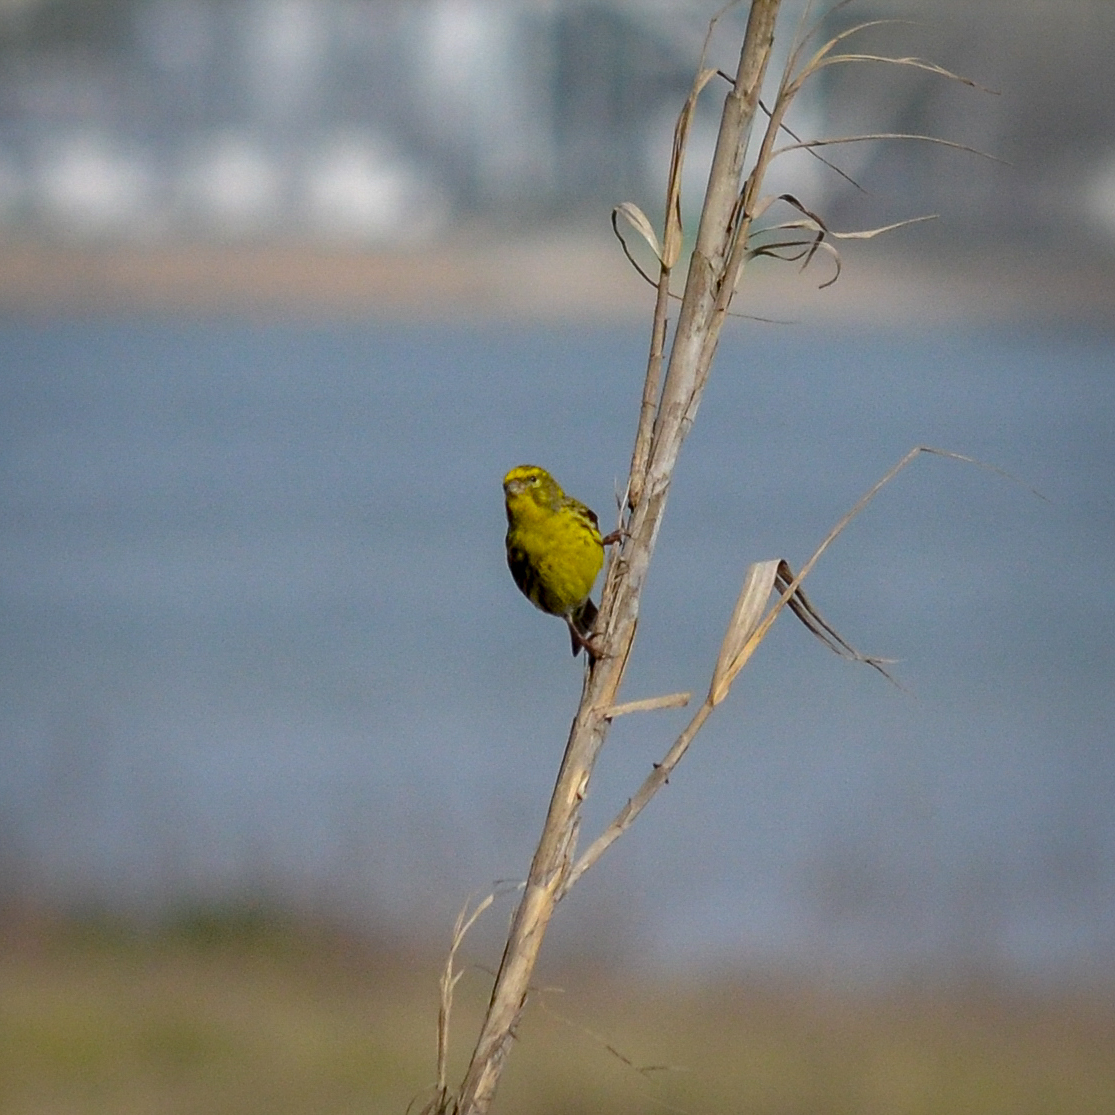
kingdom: Animalia
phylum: Chordata
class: Aves
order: Passeriformes
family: Fringillidae
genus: Serinus
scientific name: Serinus serinus
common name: European serin
